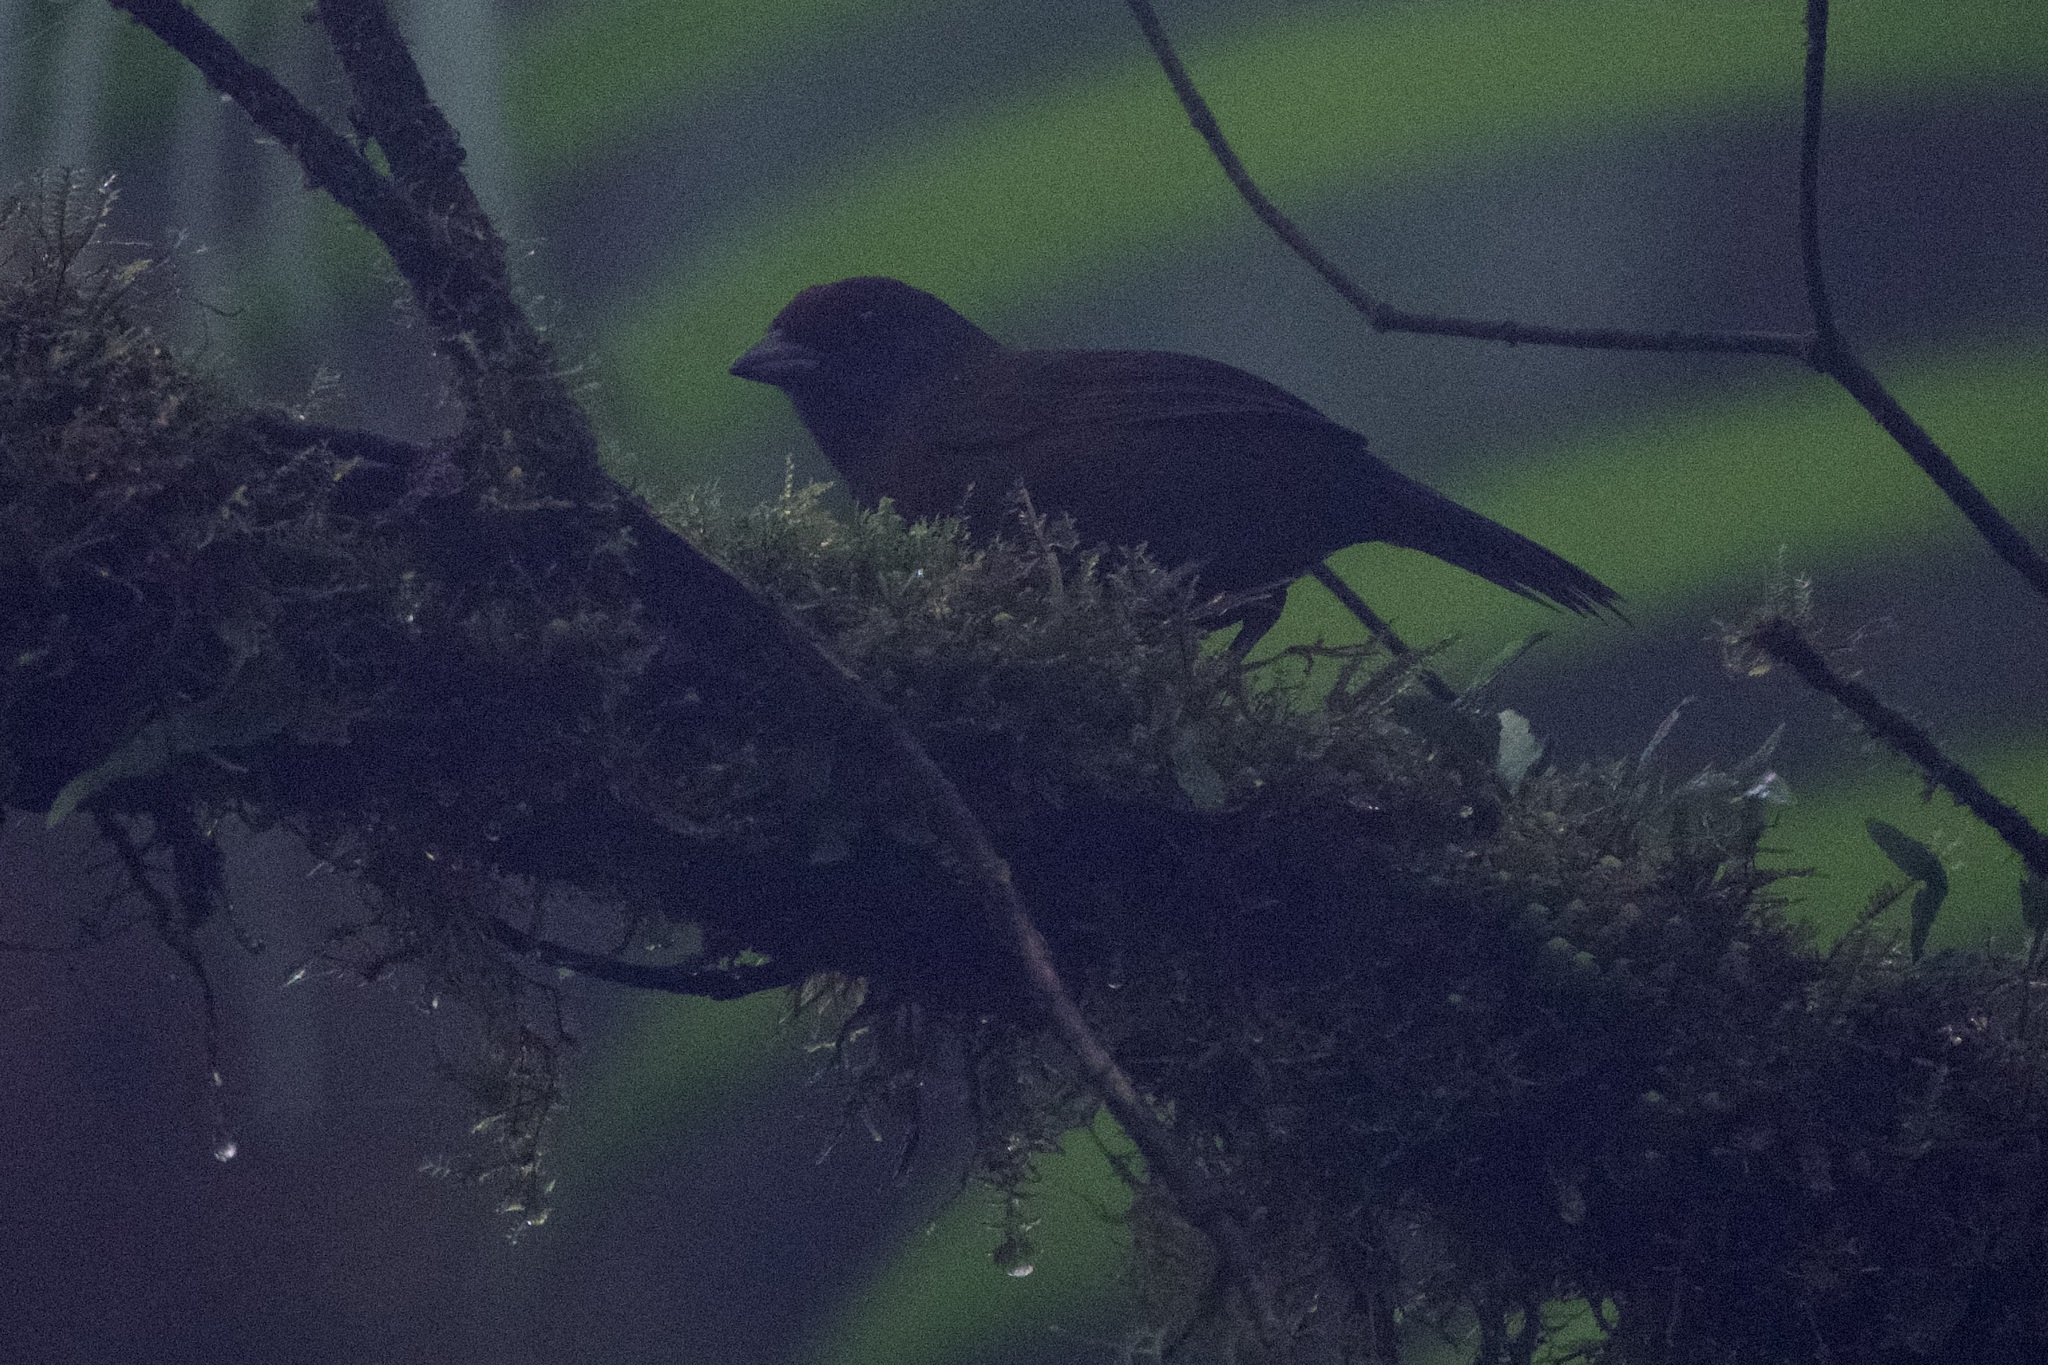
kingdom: Animalia
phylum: Chordata
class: Aves
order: Passeriformes
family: Passerellidae
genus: Arremon
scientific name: Arremon castaneiceps
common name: Olive finch
